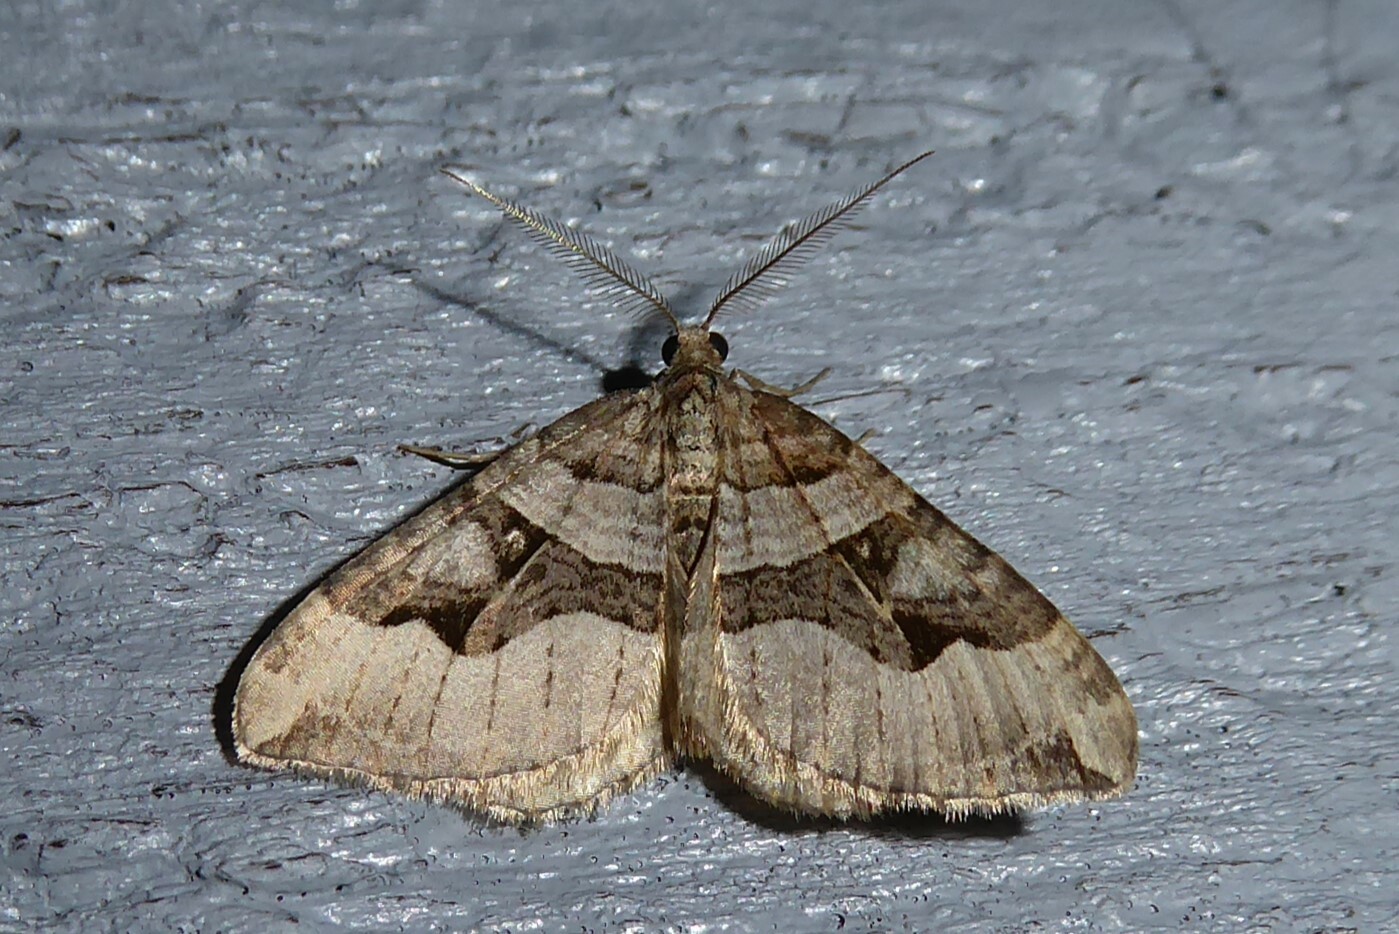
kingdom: Animalia
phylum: Arthropoda
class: Insecta
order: Lepidoptera
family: Geometridae
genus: Xanthorhoe
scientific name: Xanthorhoe semifissata
